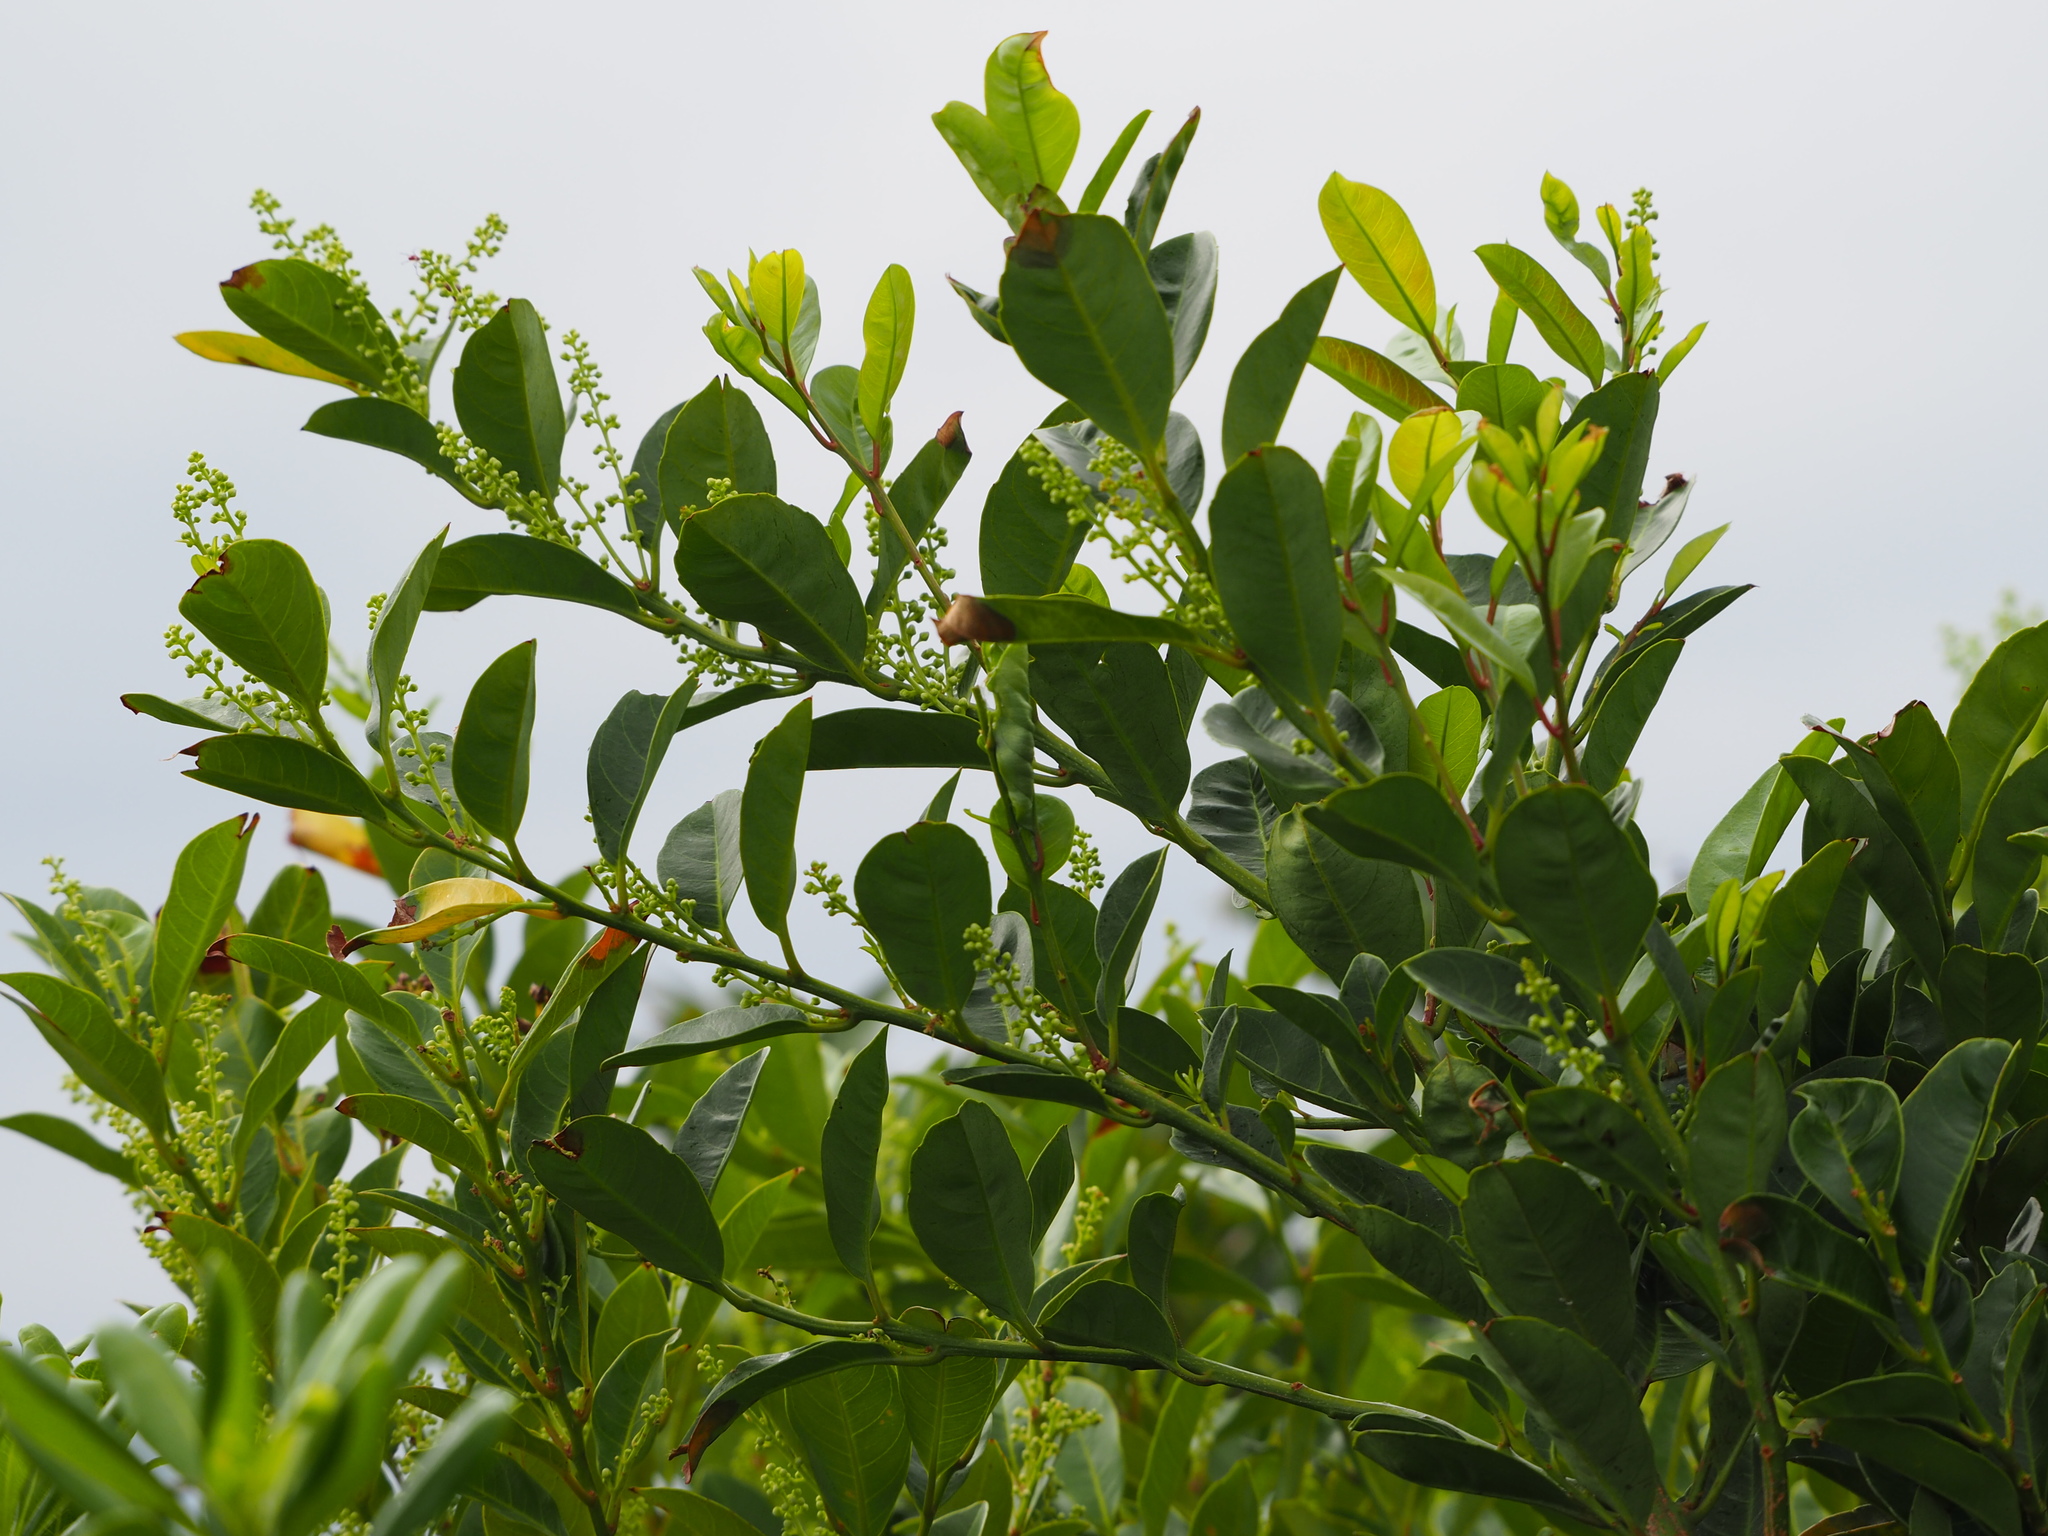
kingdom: Plantae
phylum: Tracheophyta
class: Magnoliopsida
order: Saxifragales
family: Iteaceae
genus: Itea
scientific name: Itea oldhamii
